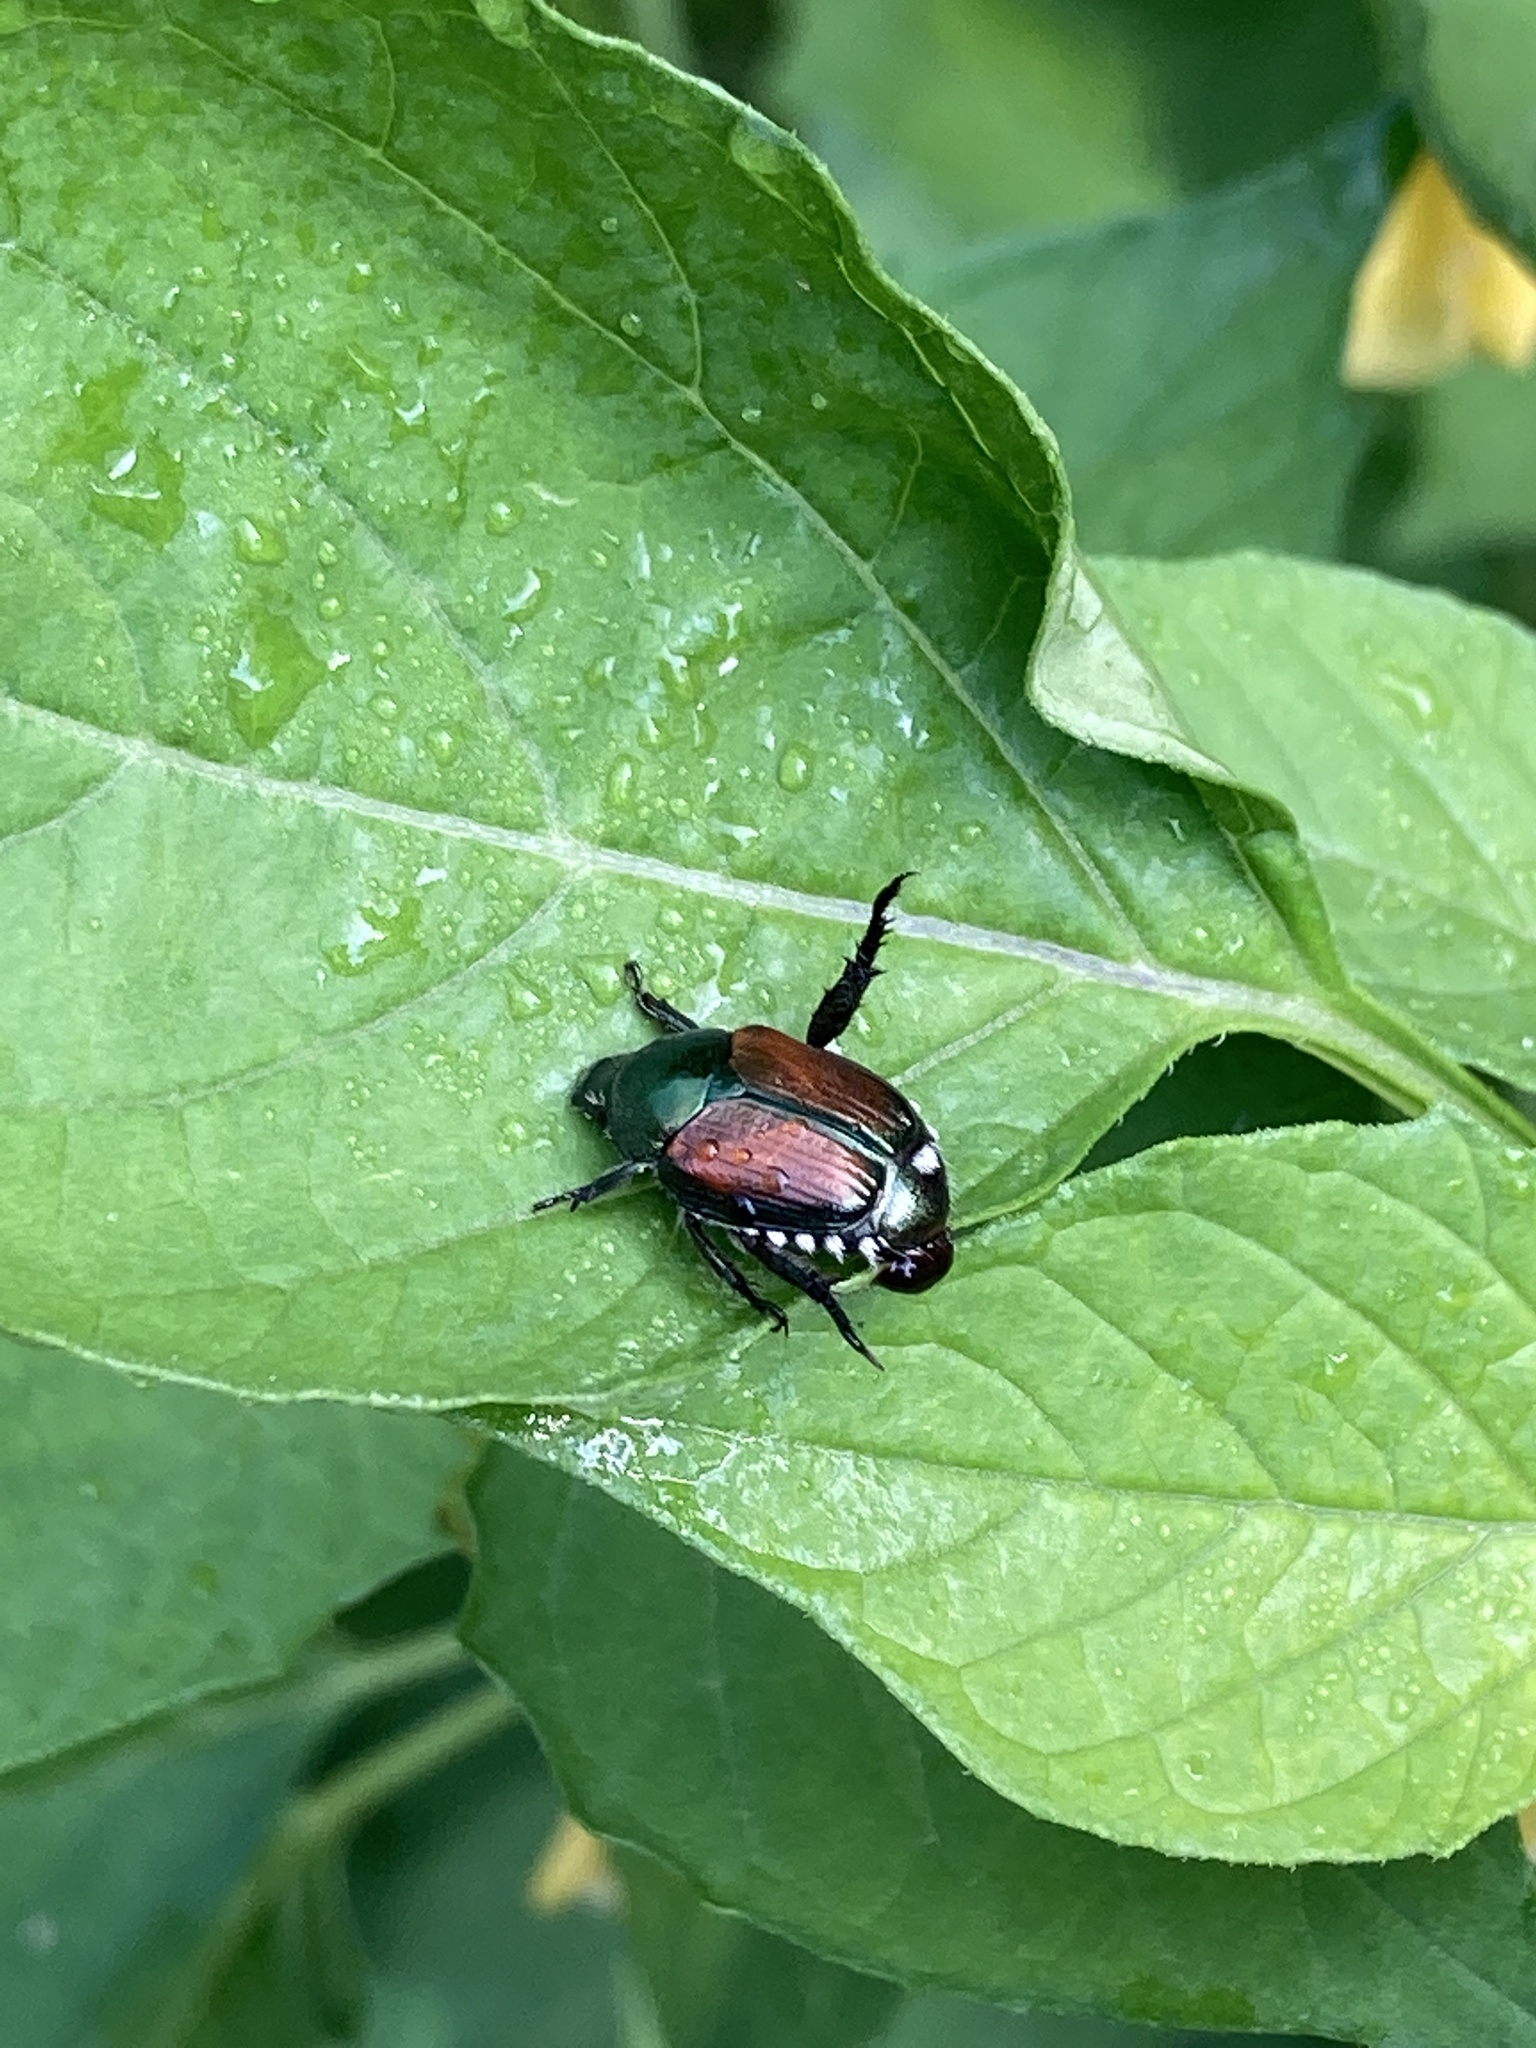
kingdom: Animalia
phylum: Arthropoda
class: Insecta
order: Coleoptera
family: Scarabaeidae
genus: Popillia
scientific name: Popillia japonica
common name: Japanese beetle
